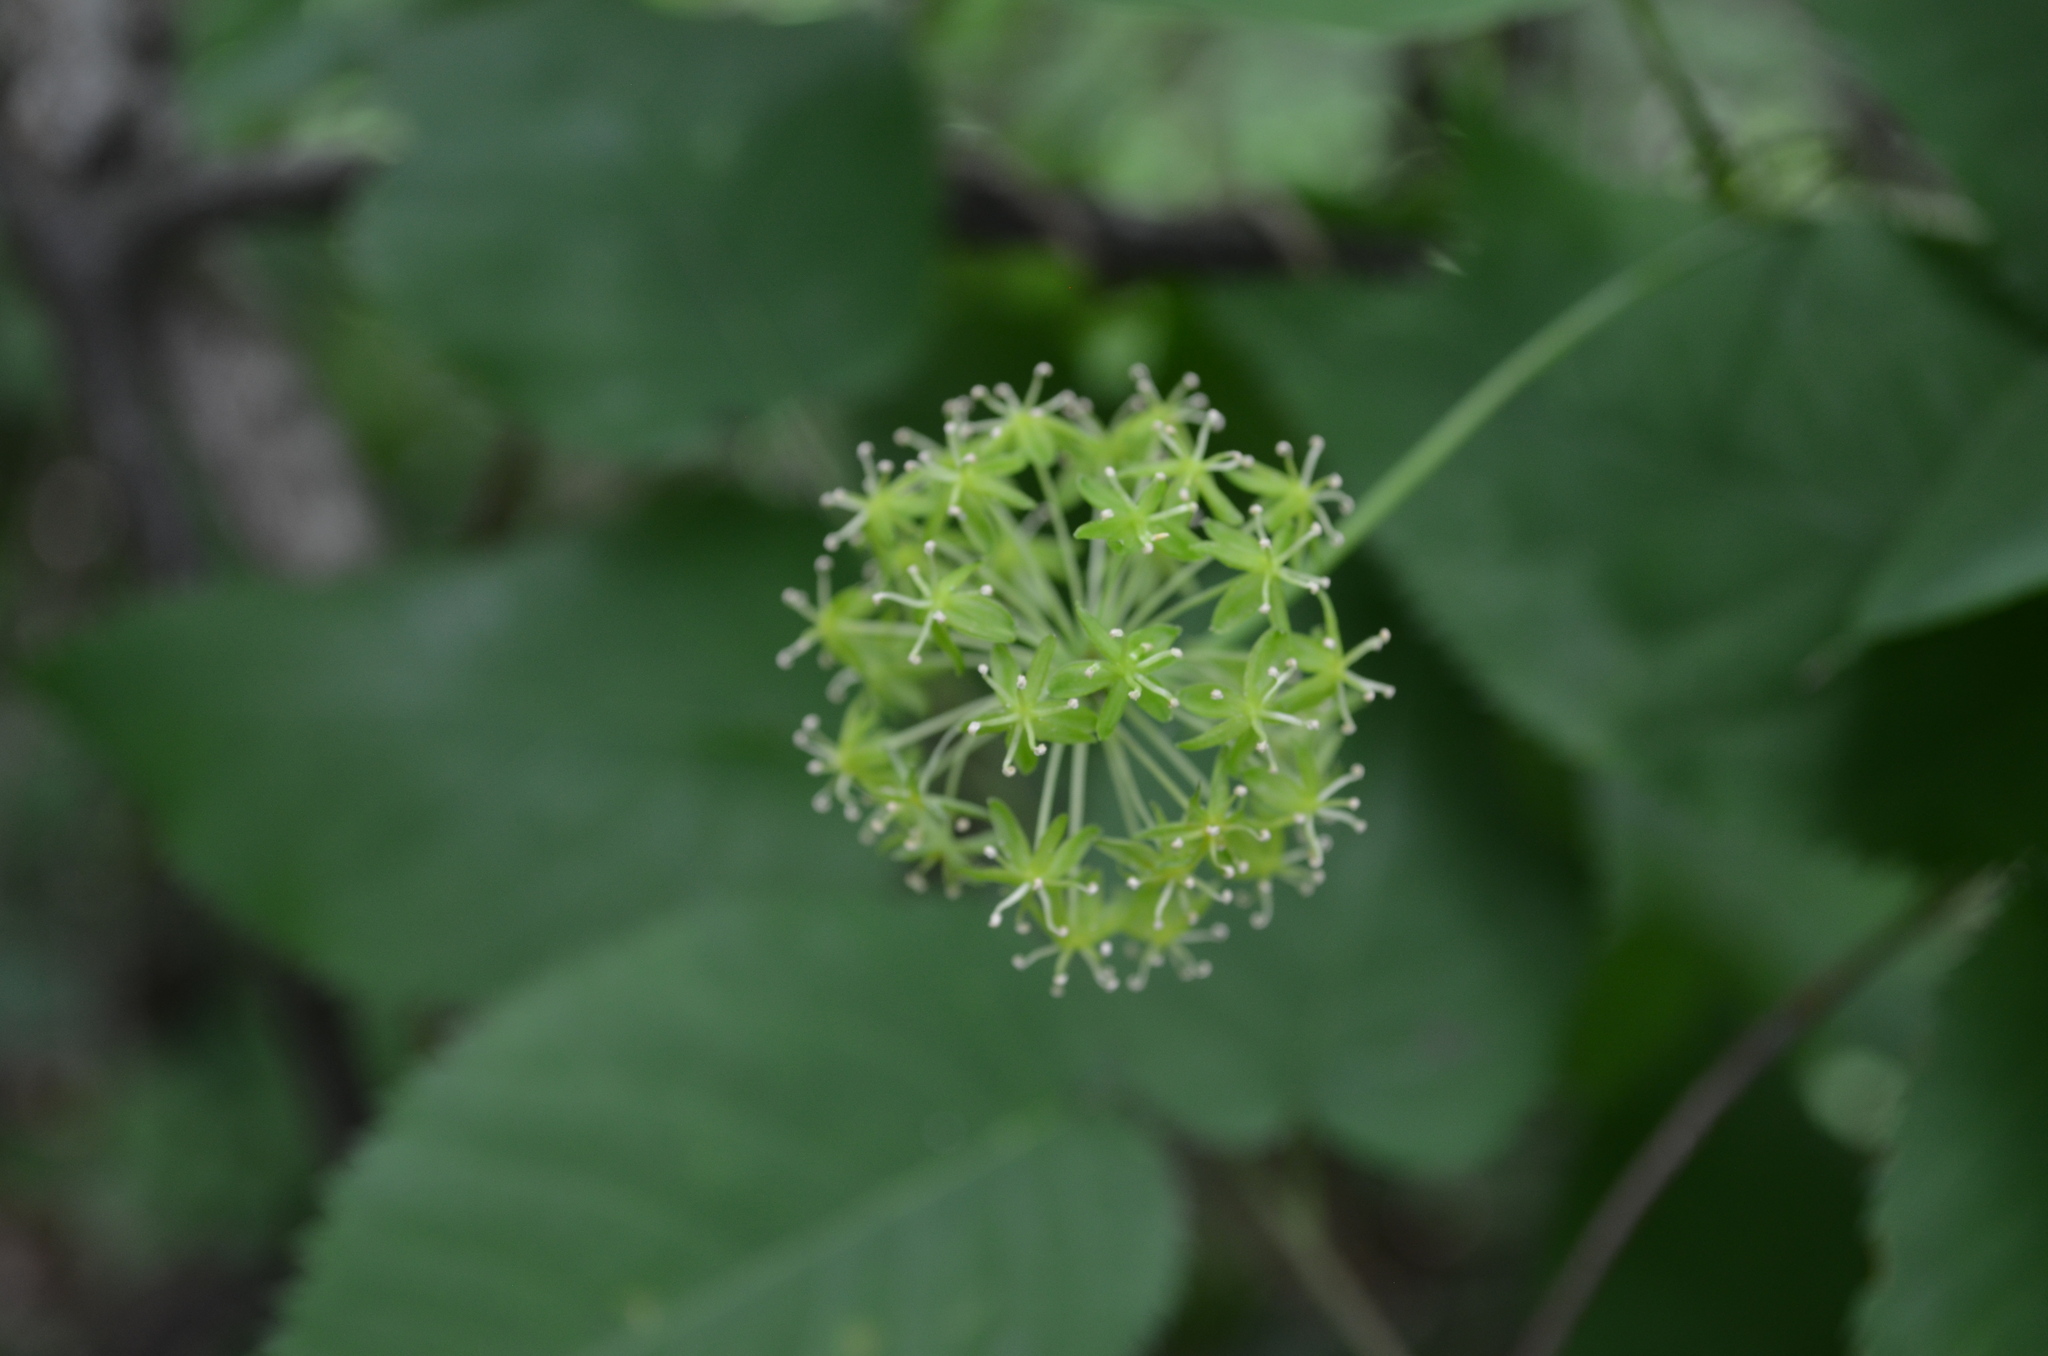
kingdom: Plantae
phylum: Tracheophyta
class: Liliopsida
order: Liliales
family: Smilacaceae
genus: Smilax
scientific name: Smilax herbacea
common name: Jacob's-ladder
